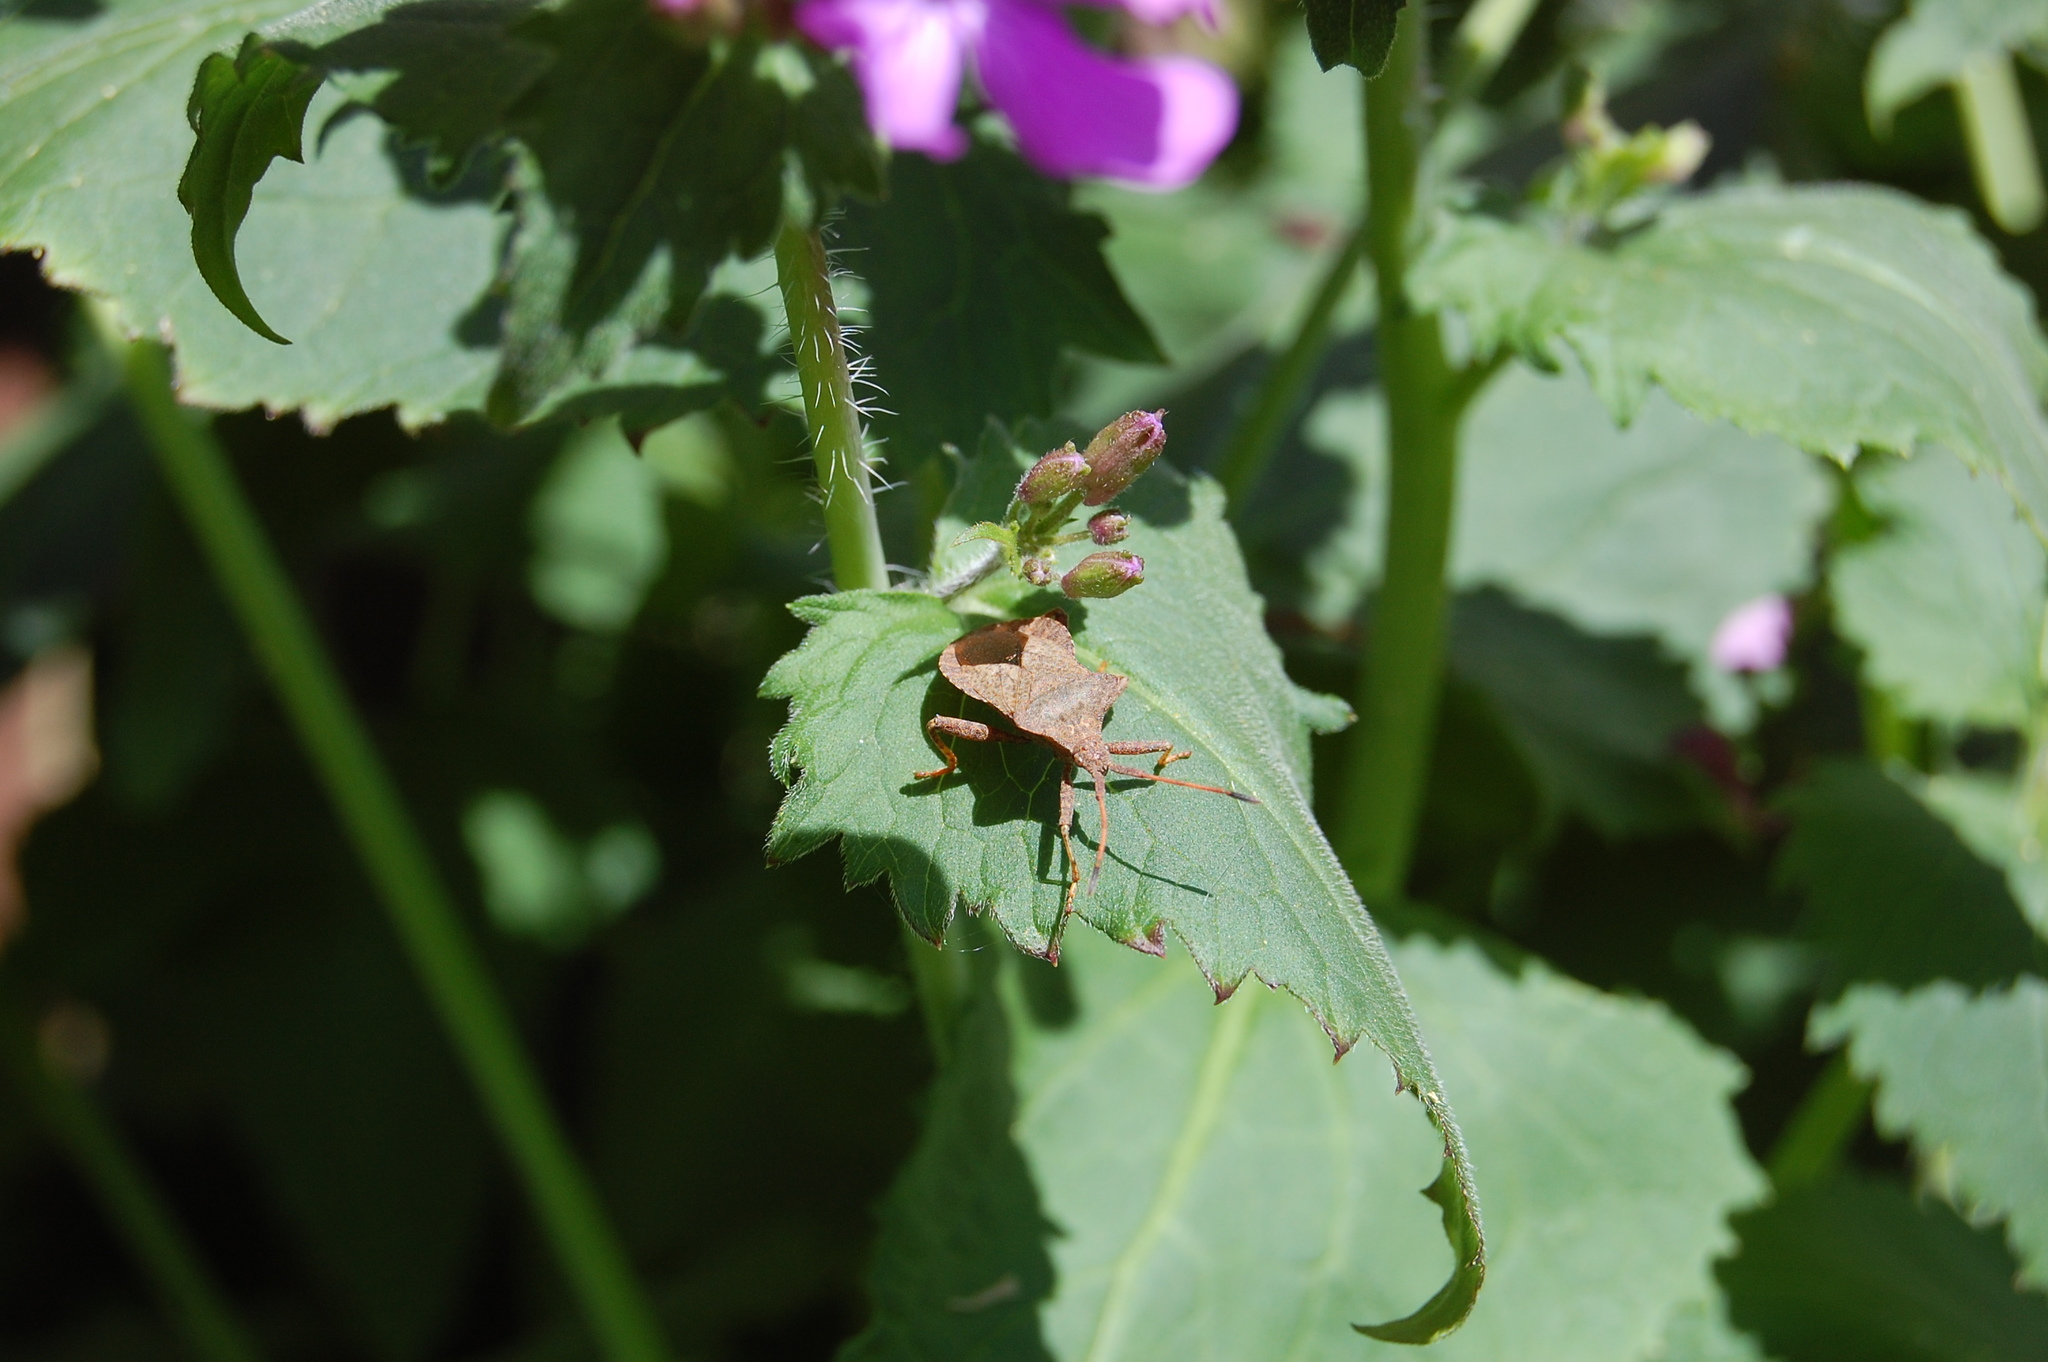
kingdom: Animalia
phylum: Arthropoda
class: Insecta
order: Hemiptera
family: Coreidae
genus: Coreus
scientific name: Coreus marginatus
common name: Dock bug
